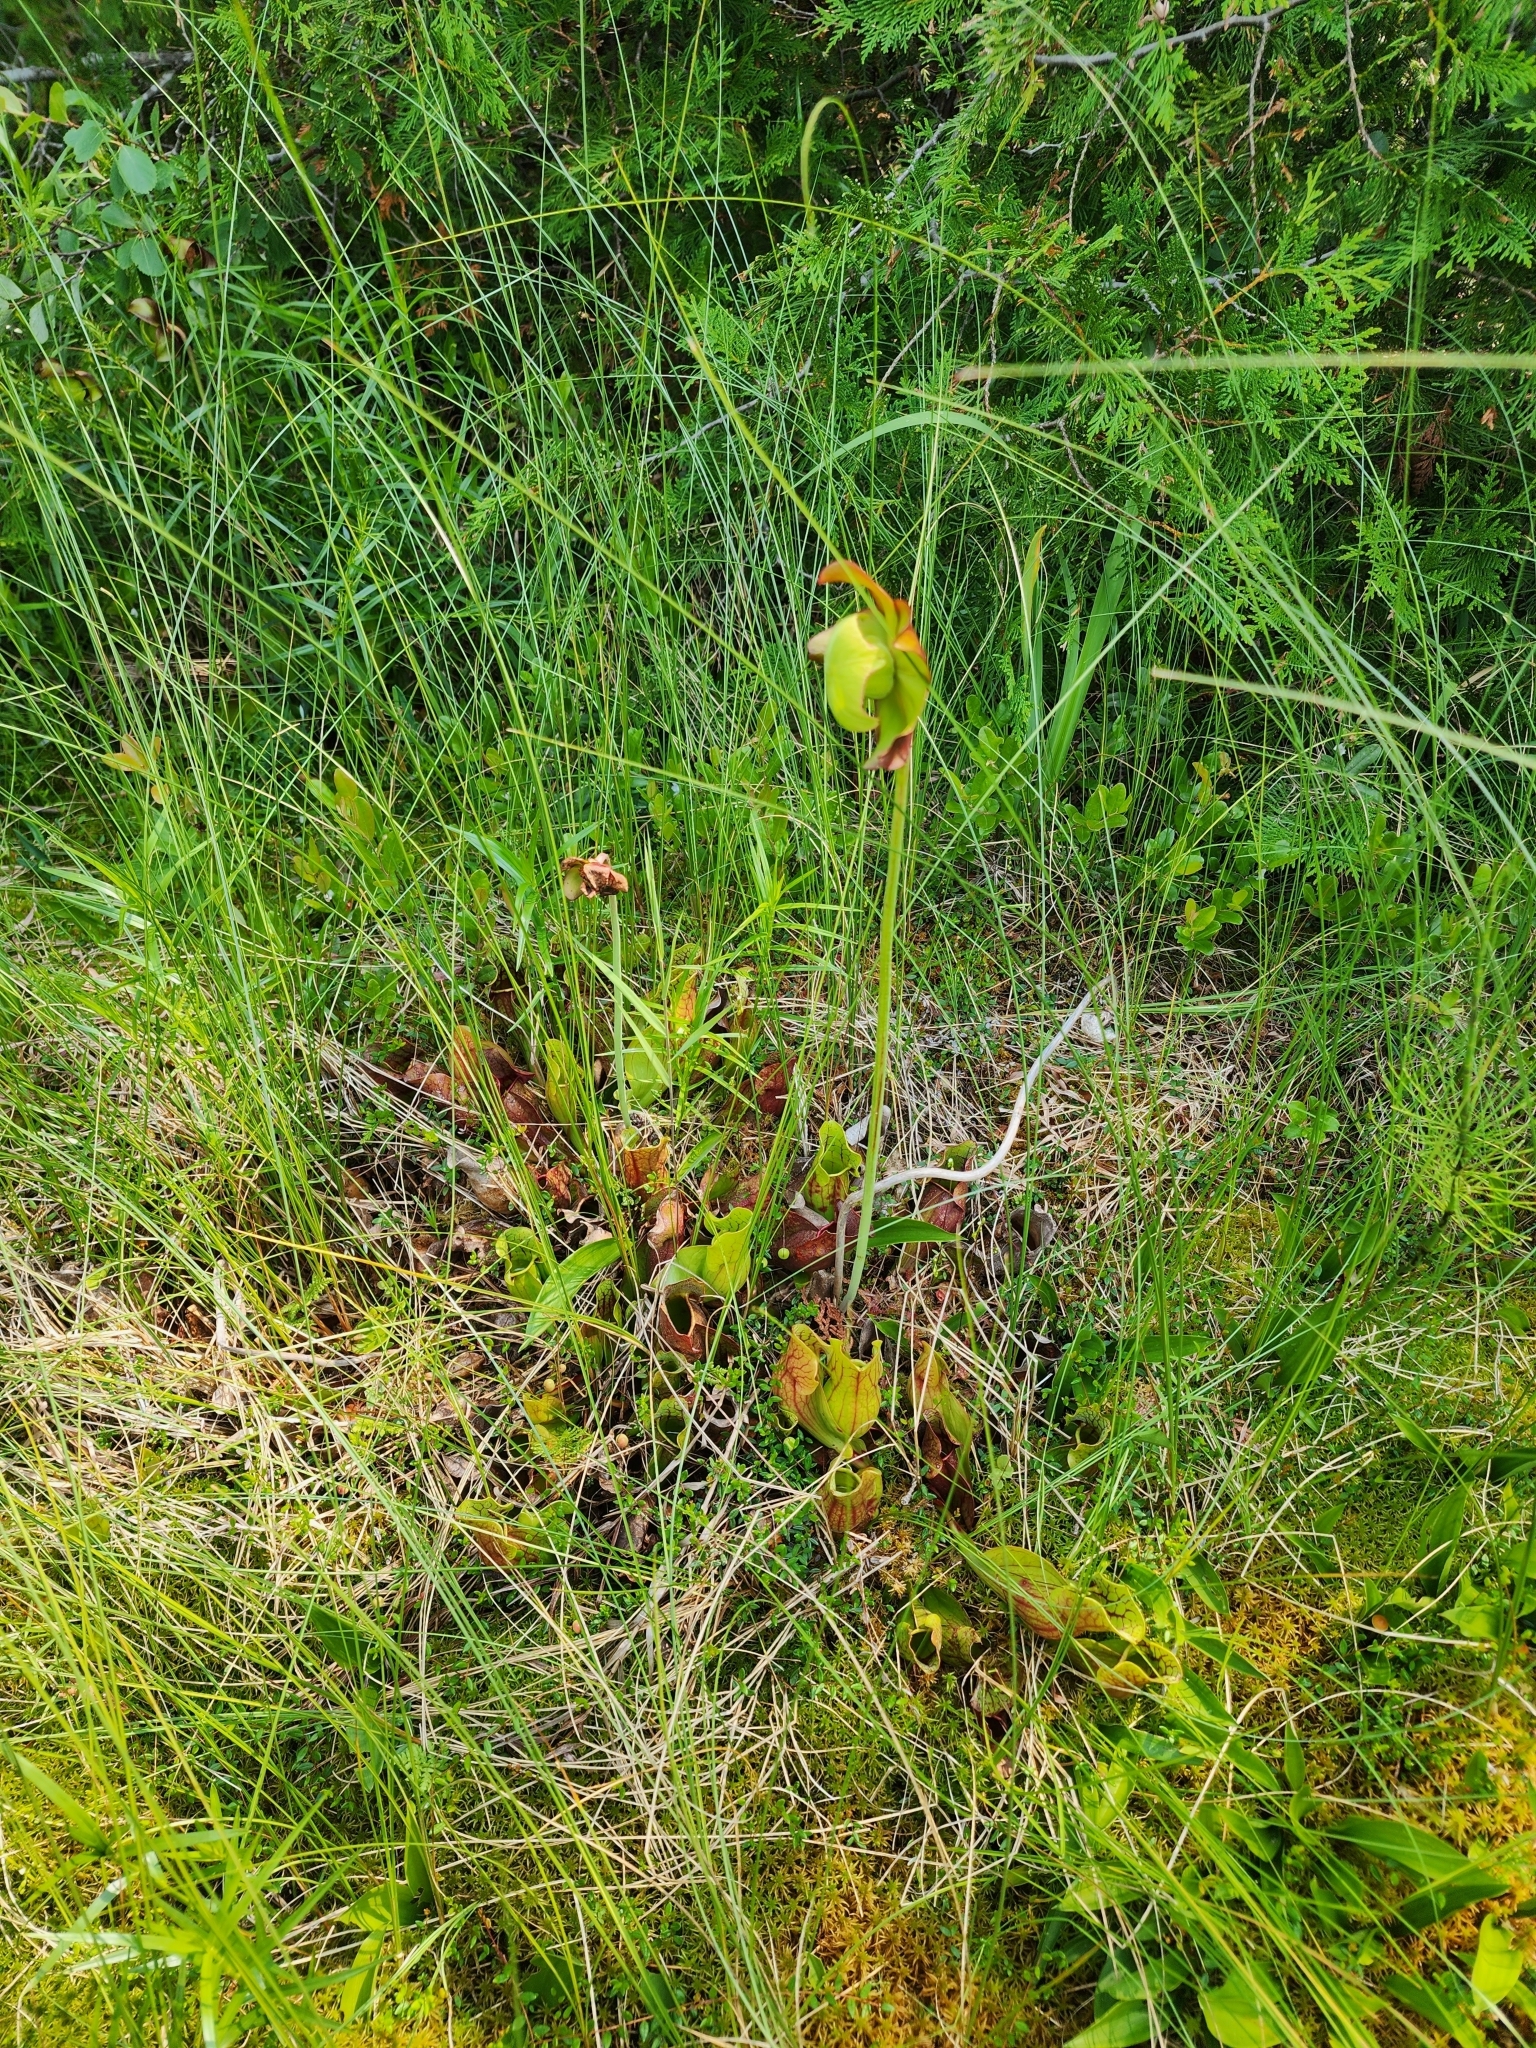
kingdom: Plantae
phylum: Tracheophyta
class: Magnoliopsida
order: Ericales
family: Sarraceniaceae
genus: Sarracenia
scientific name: Sarracenia purpurea
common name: Pitcherplant
